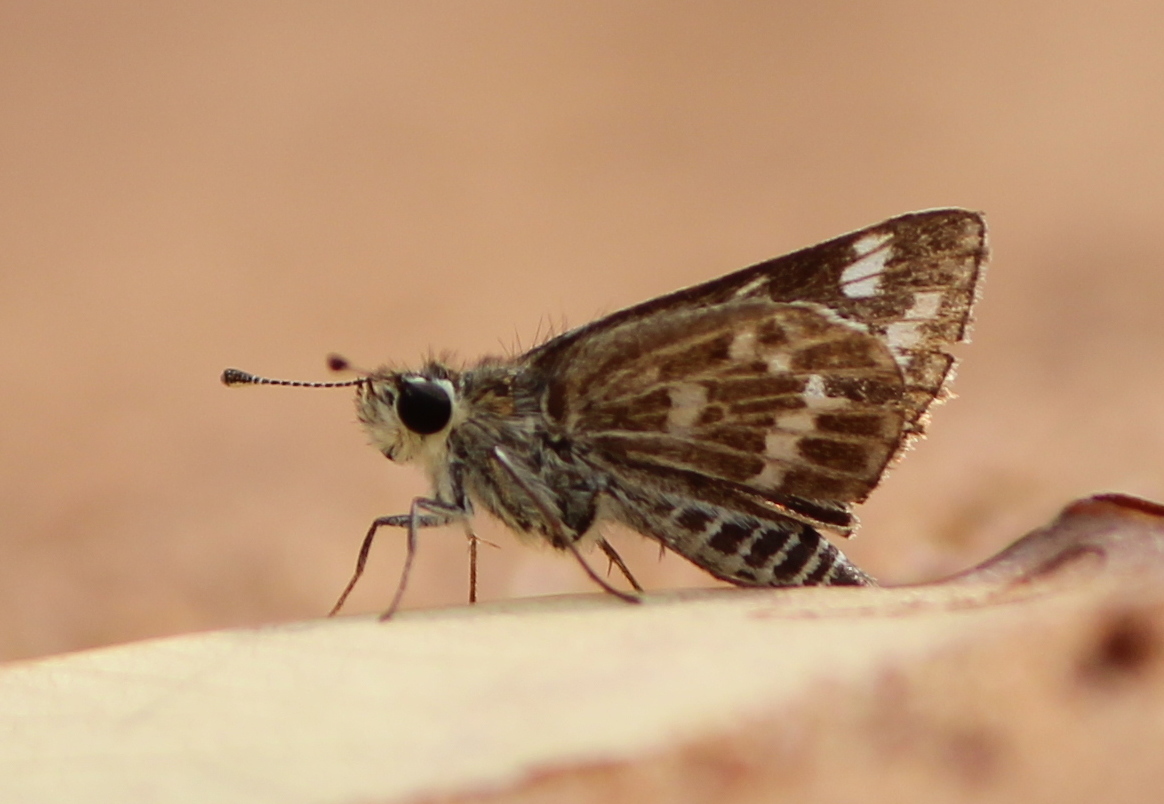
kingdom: Animalia
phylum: Arthropoda
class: Insecta
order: Lepidoptera
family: Hesperiidae
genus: Taractrocera
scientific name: Taractrocera maevius
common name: Common grass-dart
